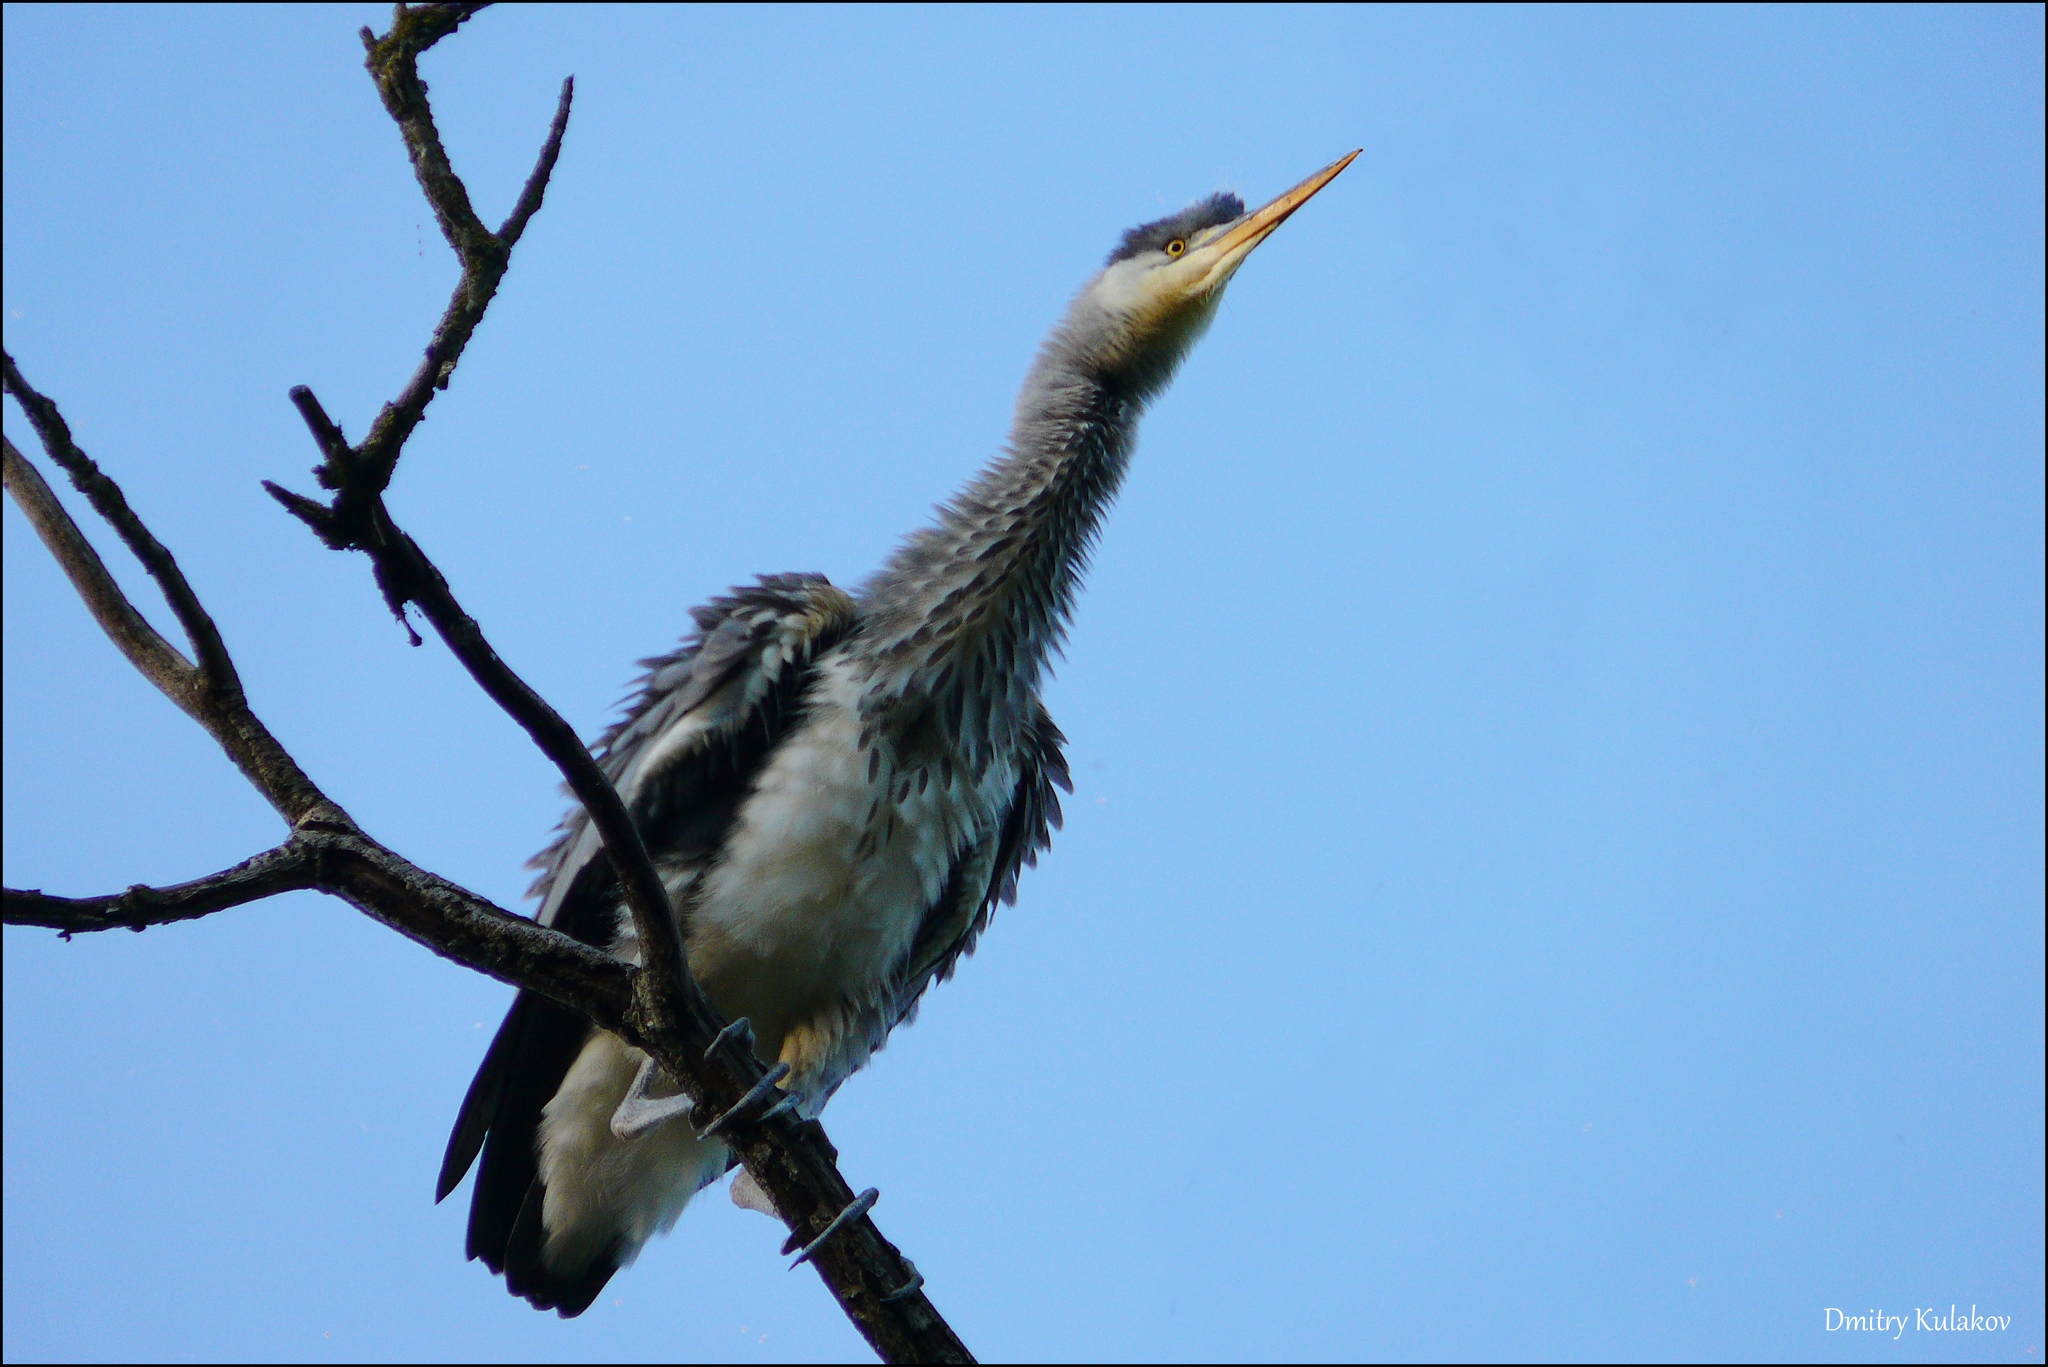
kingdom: Animalia
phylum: Chordata
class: Aves
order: Pelecaniformes
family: Ardeidae
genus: Ardea
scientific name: Ardea cinerea
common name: Grey heron
